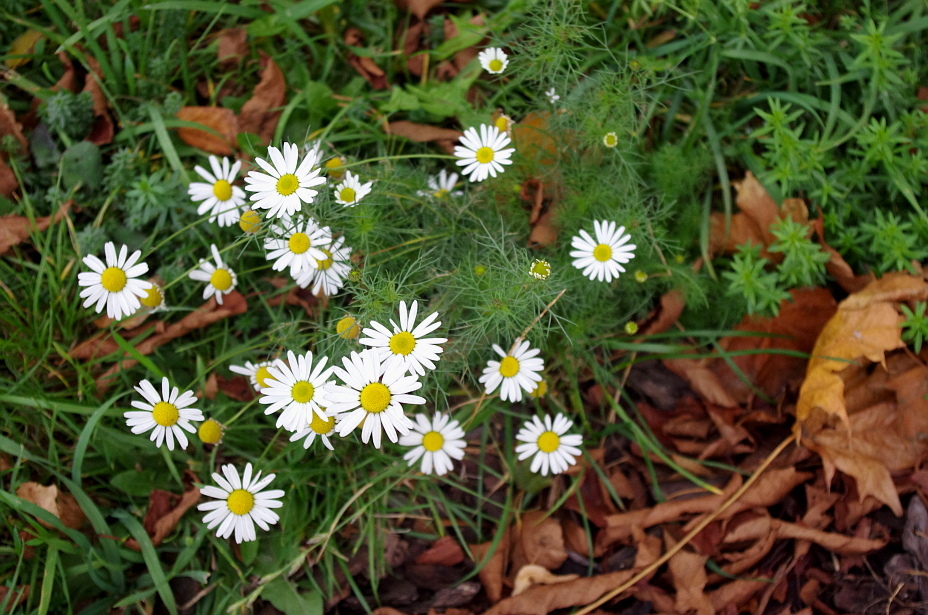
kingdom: Plantae
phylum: Tracheophyta
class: Magnoliopsida
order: Asterales
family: Asteraceae
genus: Tripleurospermum
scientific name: Tripleurospermum inodorum
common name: Scentless mayweed
